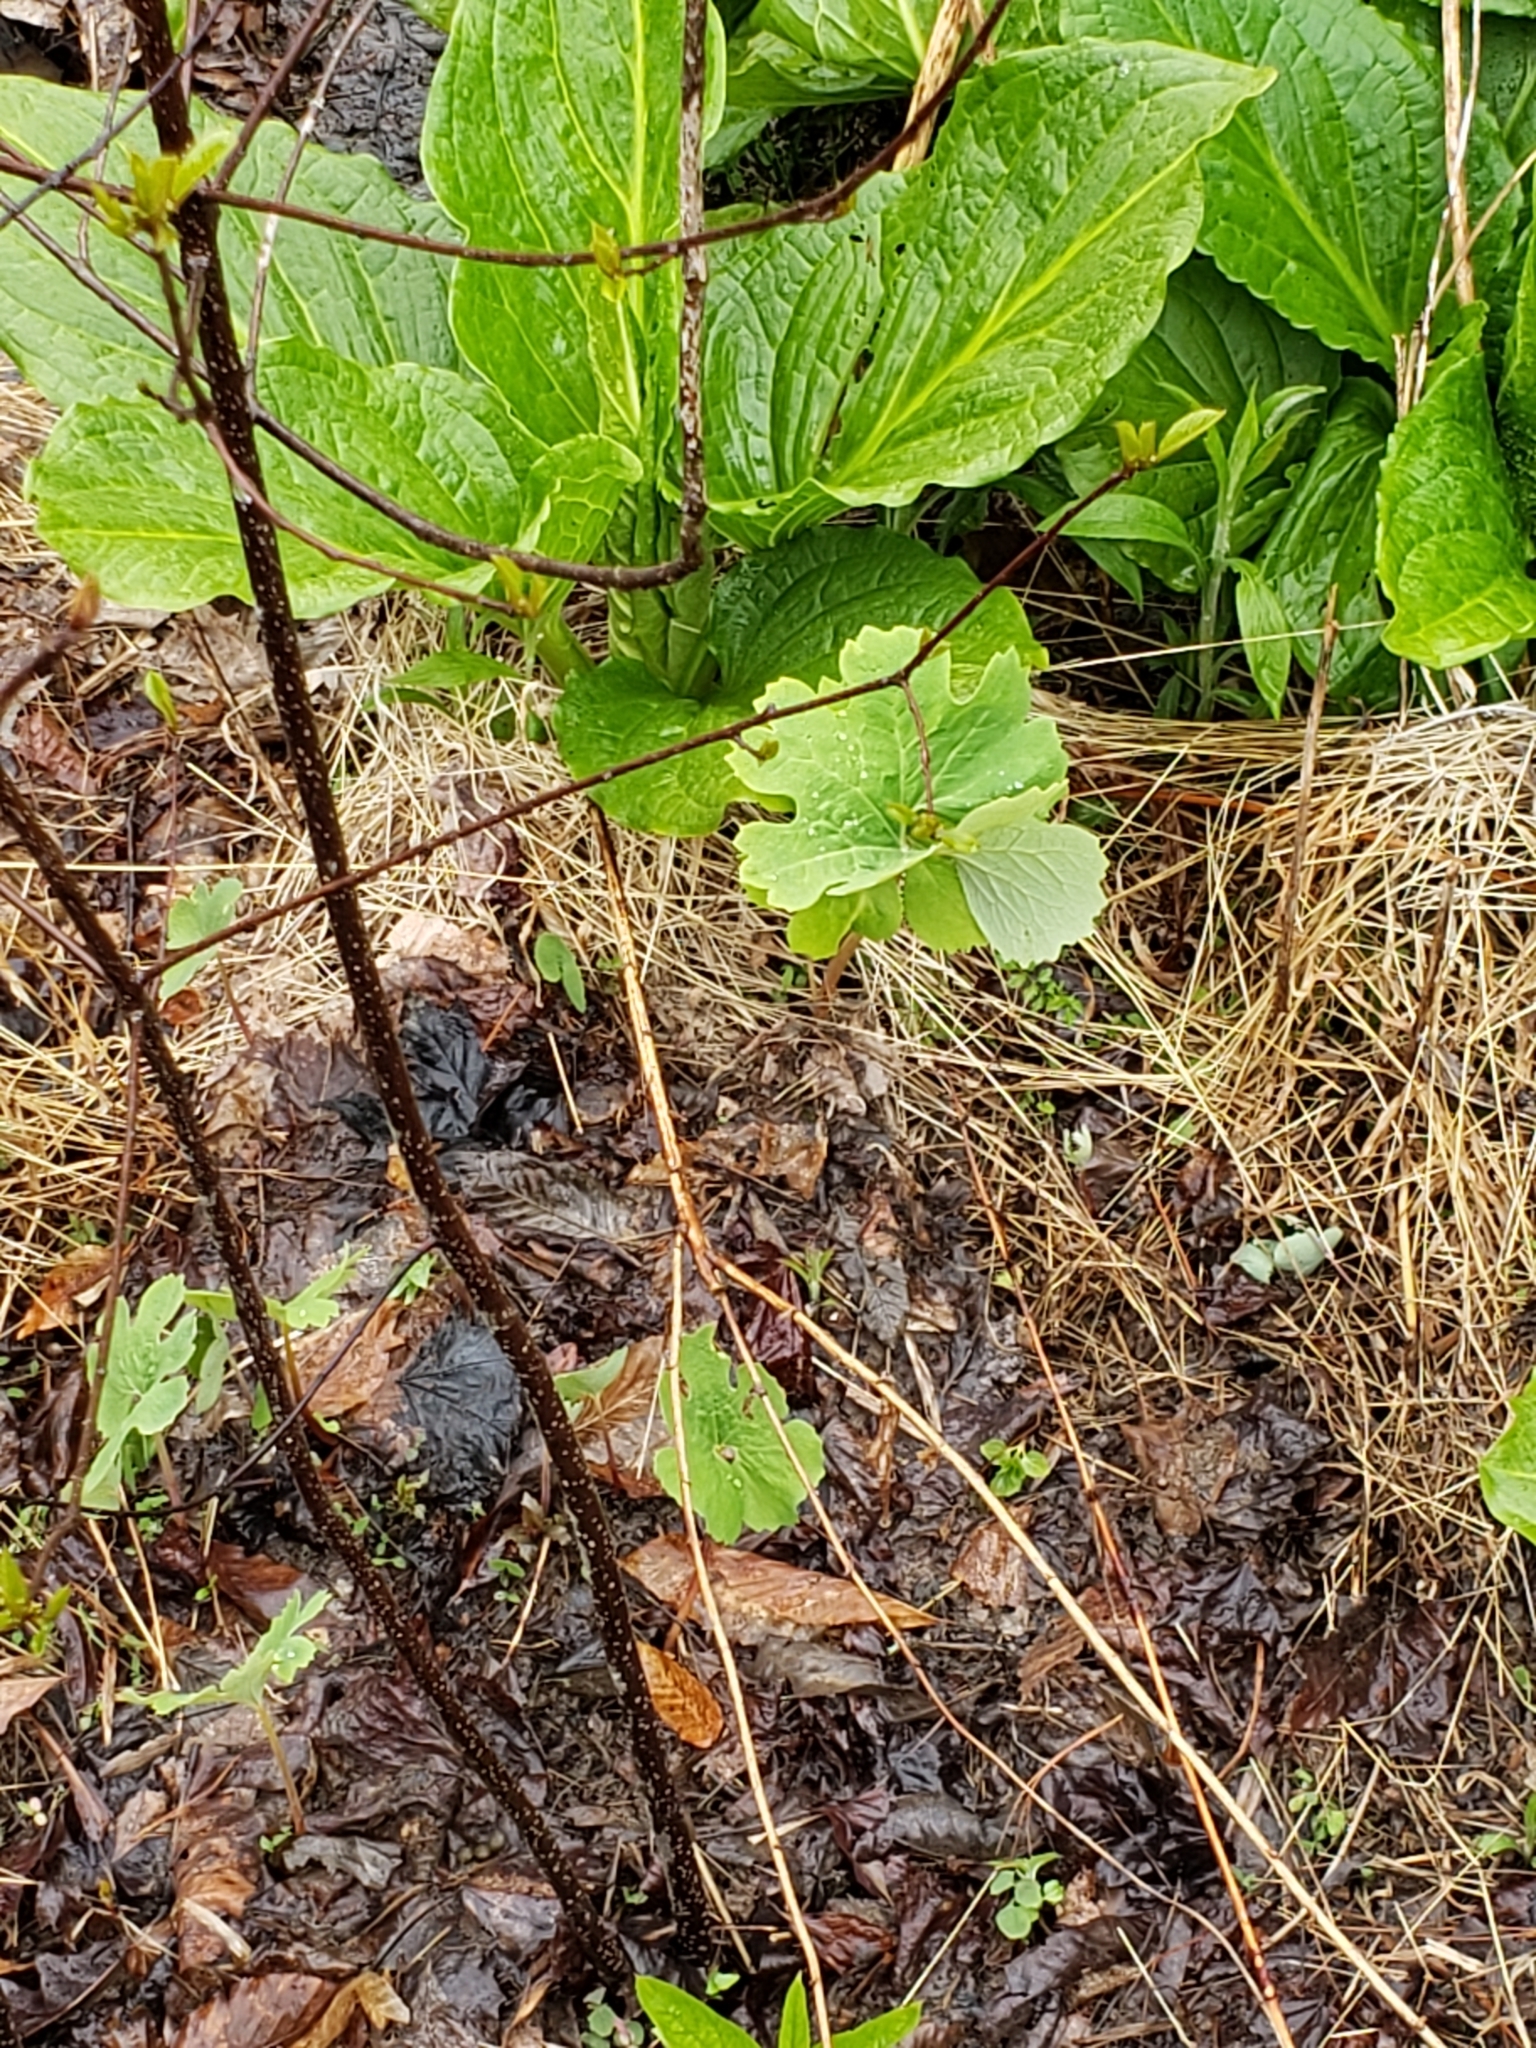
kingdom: Plantae
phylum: Tracheophyta
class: Magnoliopsida
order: Ranunculales
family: Papaveraceae
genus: Sanguinaria
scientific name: Sanguinaria canadensis
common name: Bloodroot
